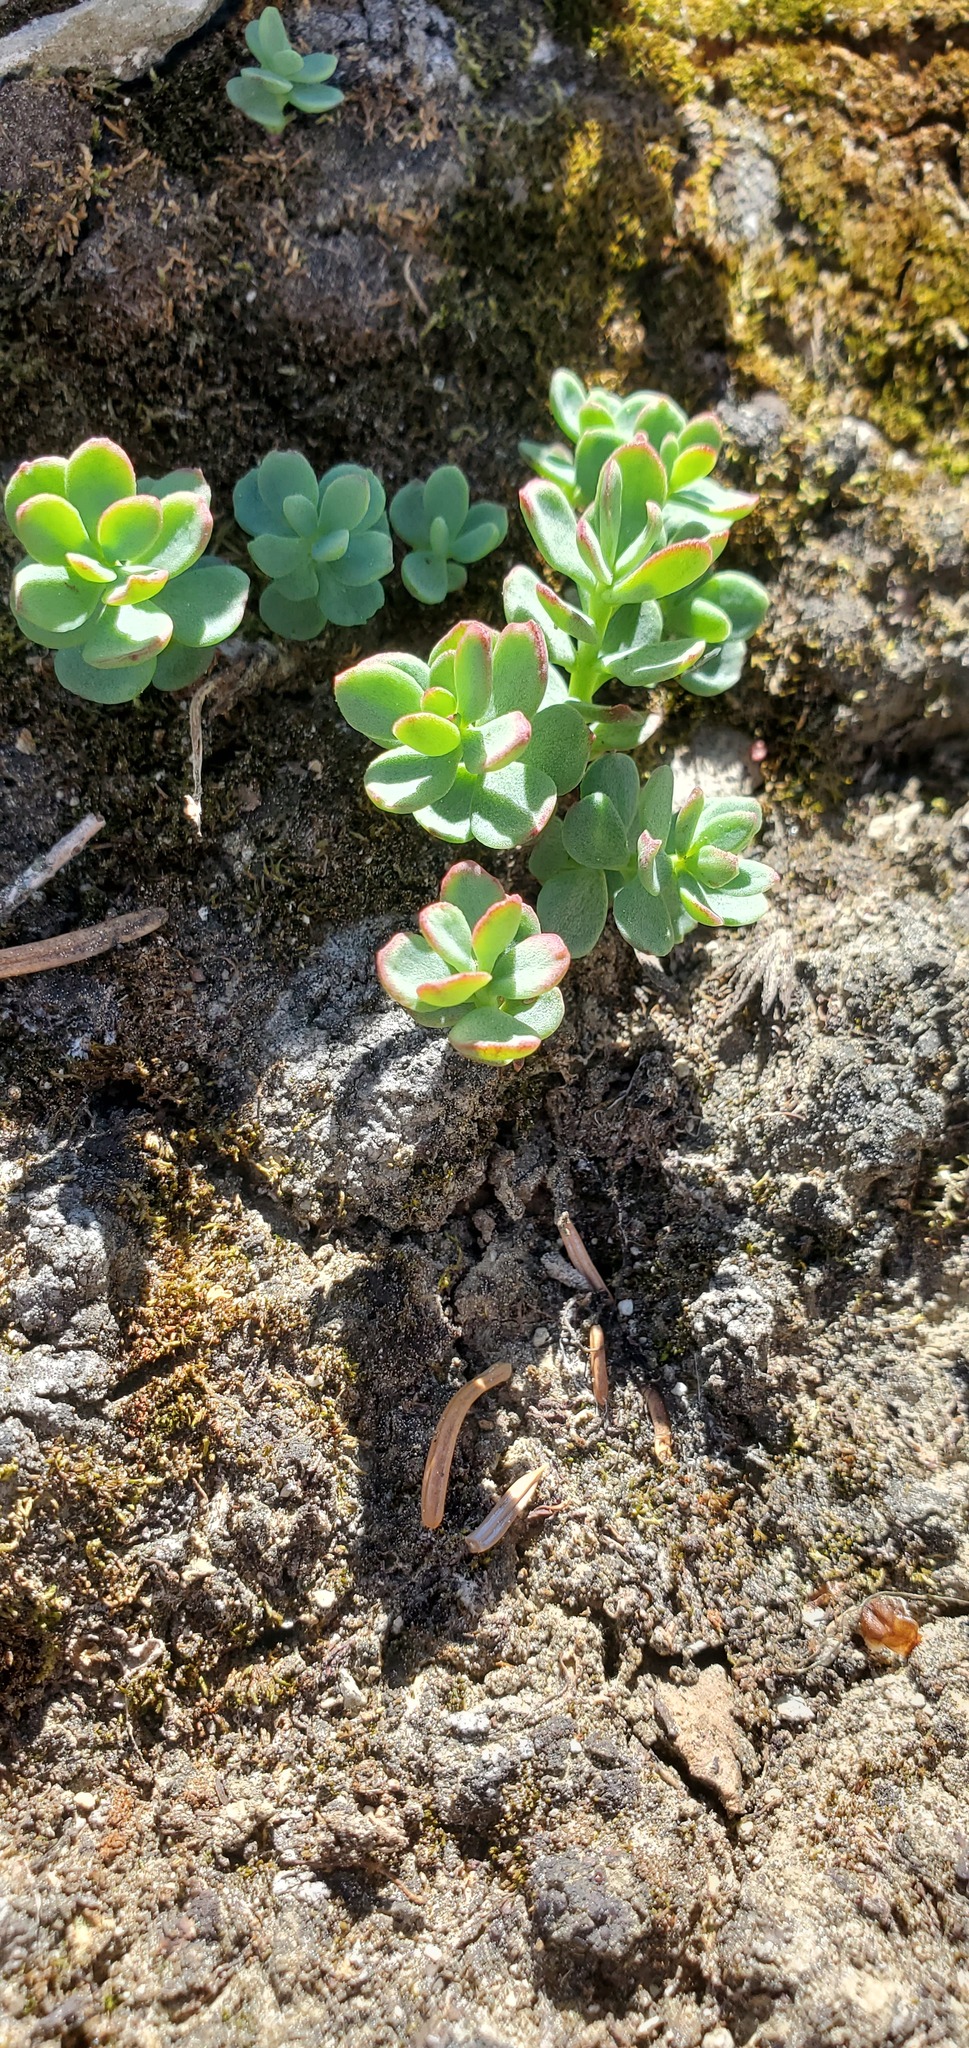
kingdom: Plantae
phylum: Tracheophyta
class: Magnoliopsida
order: Saxifragales
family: Crassulaceae
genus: Rhodiola
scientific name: Rhodiola integrifolia
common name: Western roseroot
